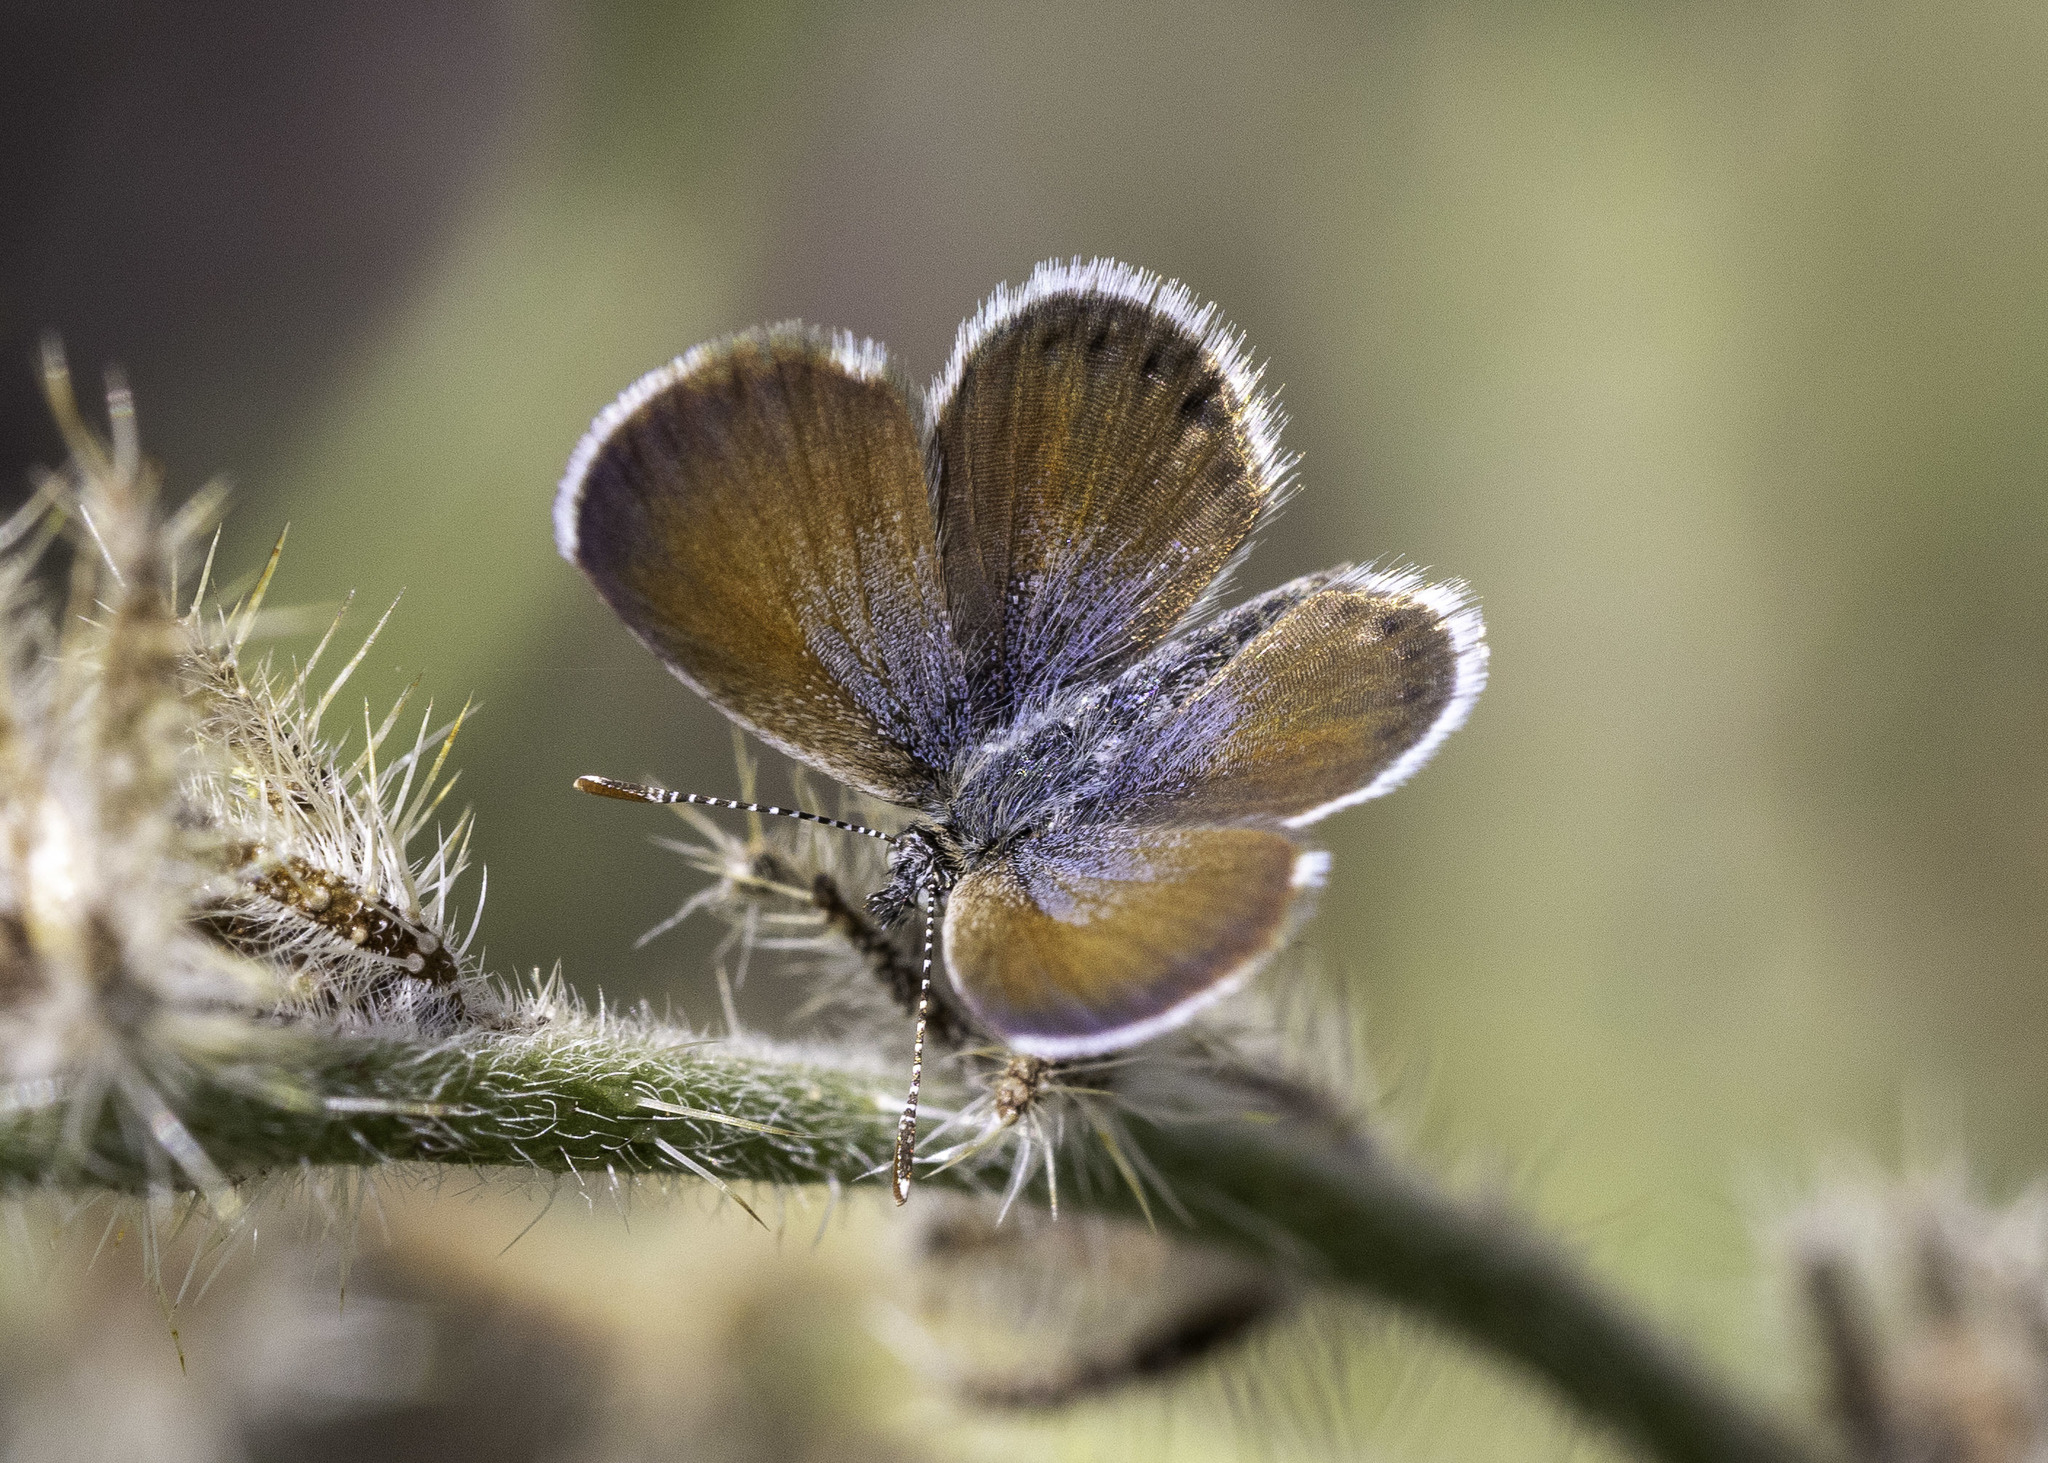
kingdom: Animalia
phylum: Arthropoda
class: Insecta
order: Lepidoptera
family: Lycaenidae
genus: Brephidium
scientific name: Brephidium exilis
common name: Pygmy blue
